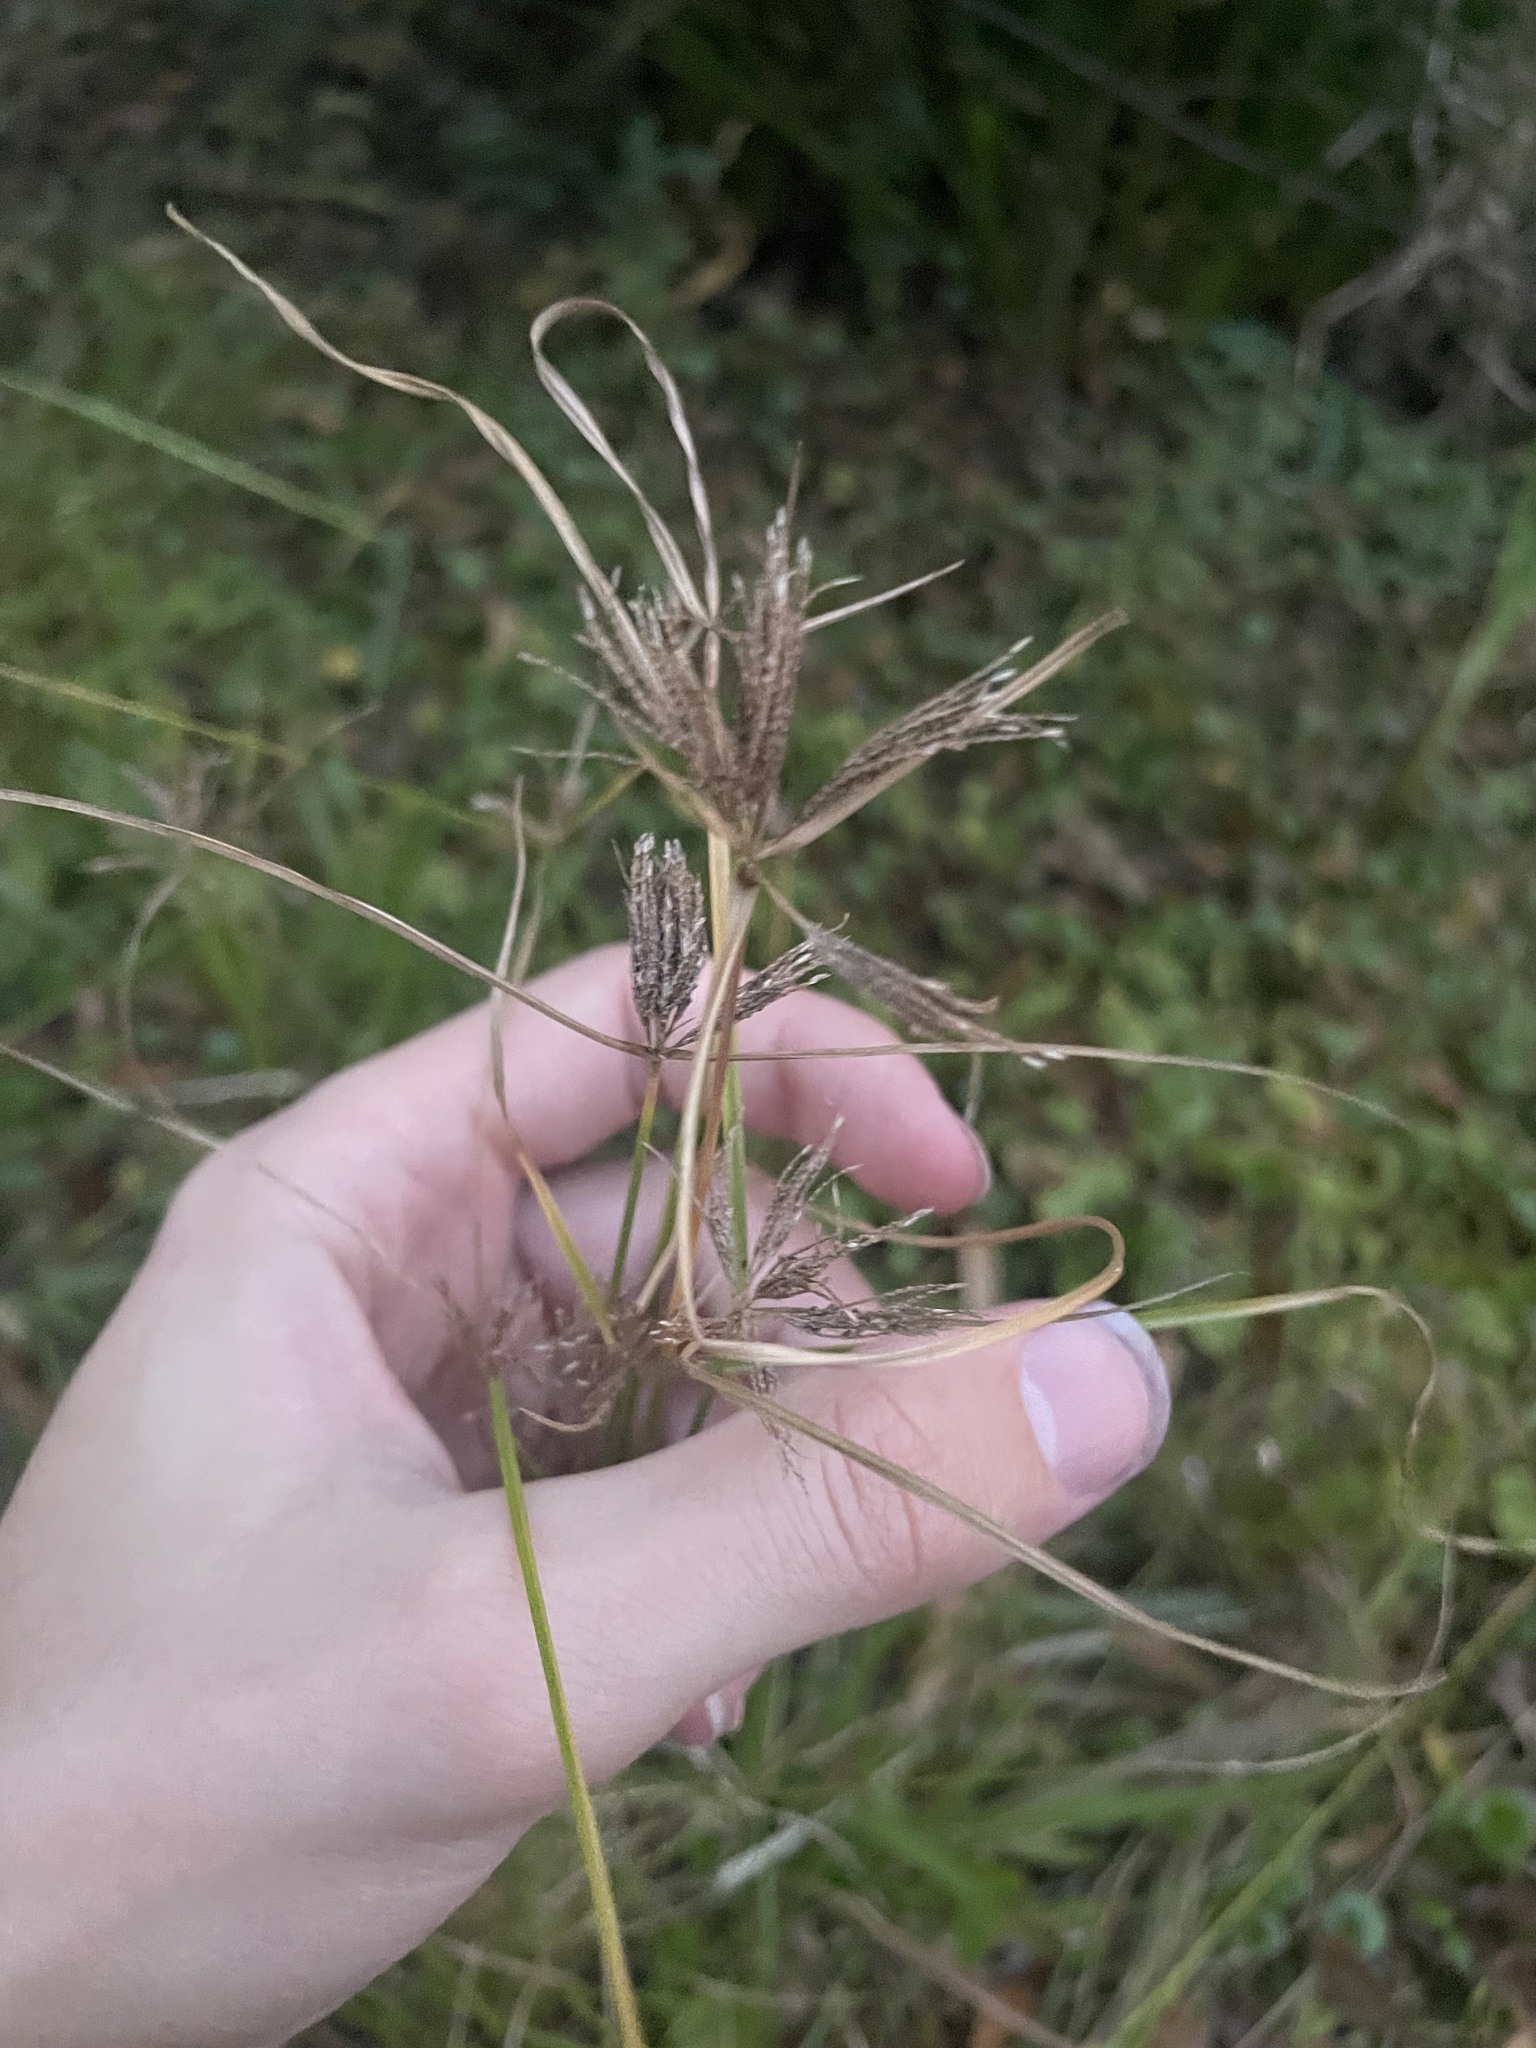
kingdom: Plantae
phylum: Tracheophyta
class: Liliopsida
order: Poales
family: Cyperaceae
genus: Cyperus
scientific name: Cyperus polystachyos
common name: Bunchy flat sedge
